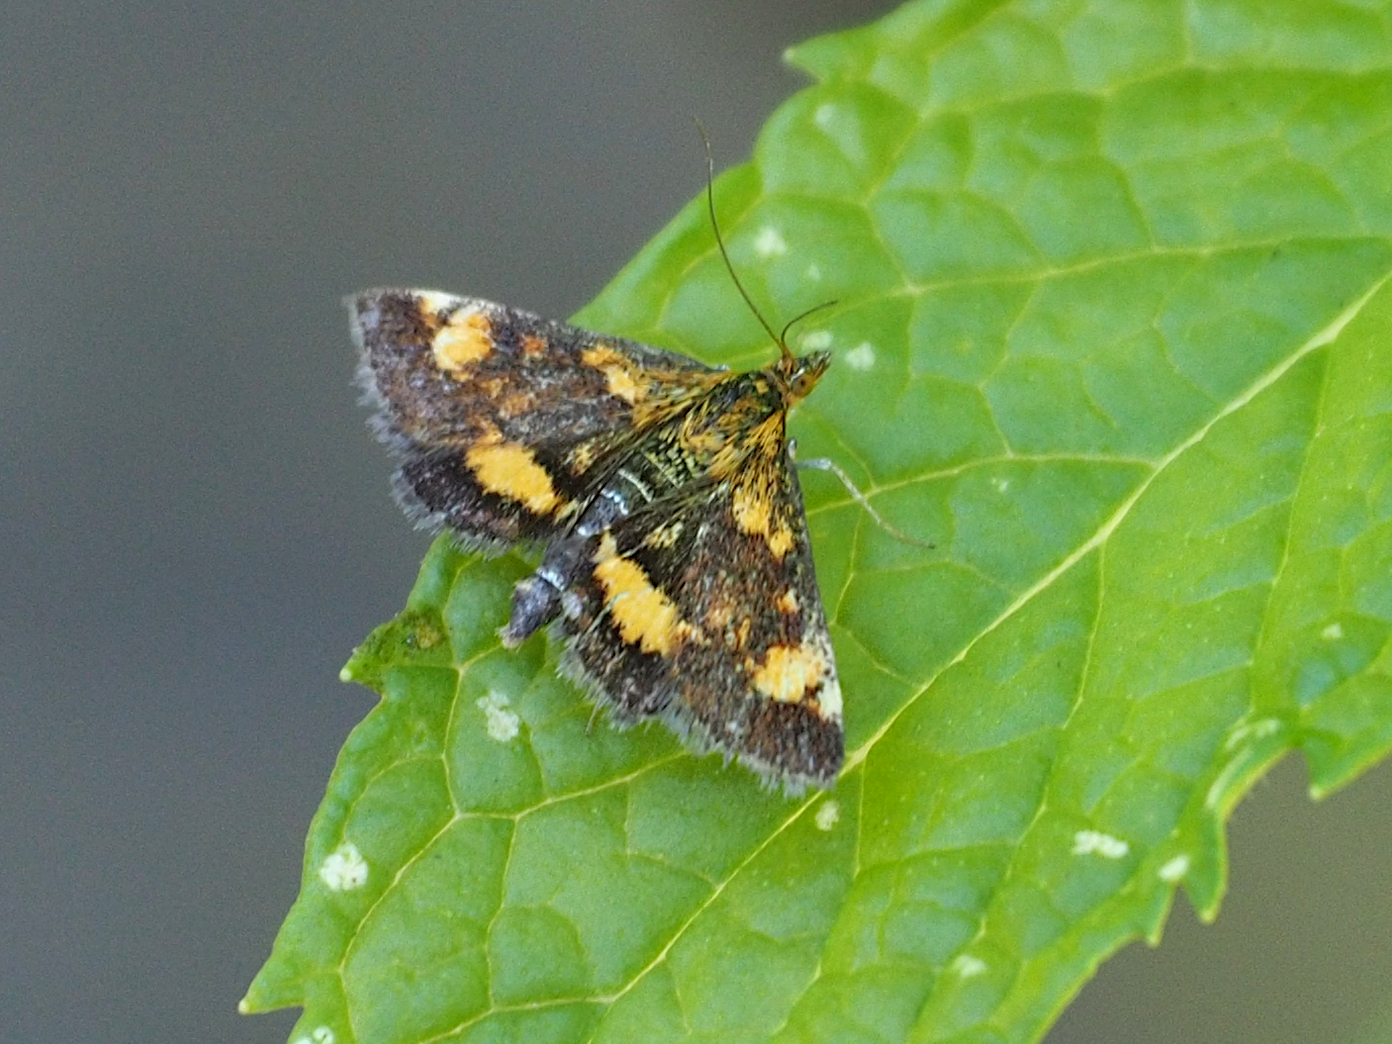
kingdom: Animalia
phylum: Arthropoda
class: Insecta
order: Lepidoptera
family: Crambidae
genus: Pyrausta
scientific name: Pyrausta orphisalis
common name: Orange mint moth
